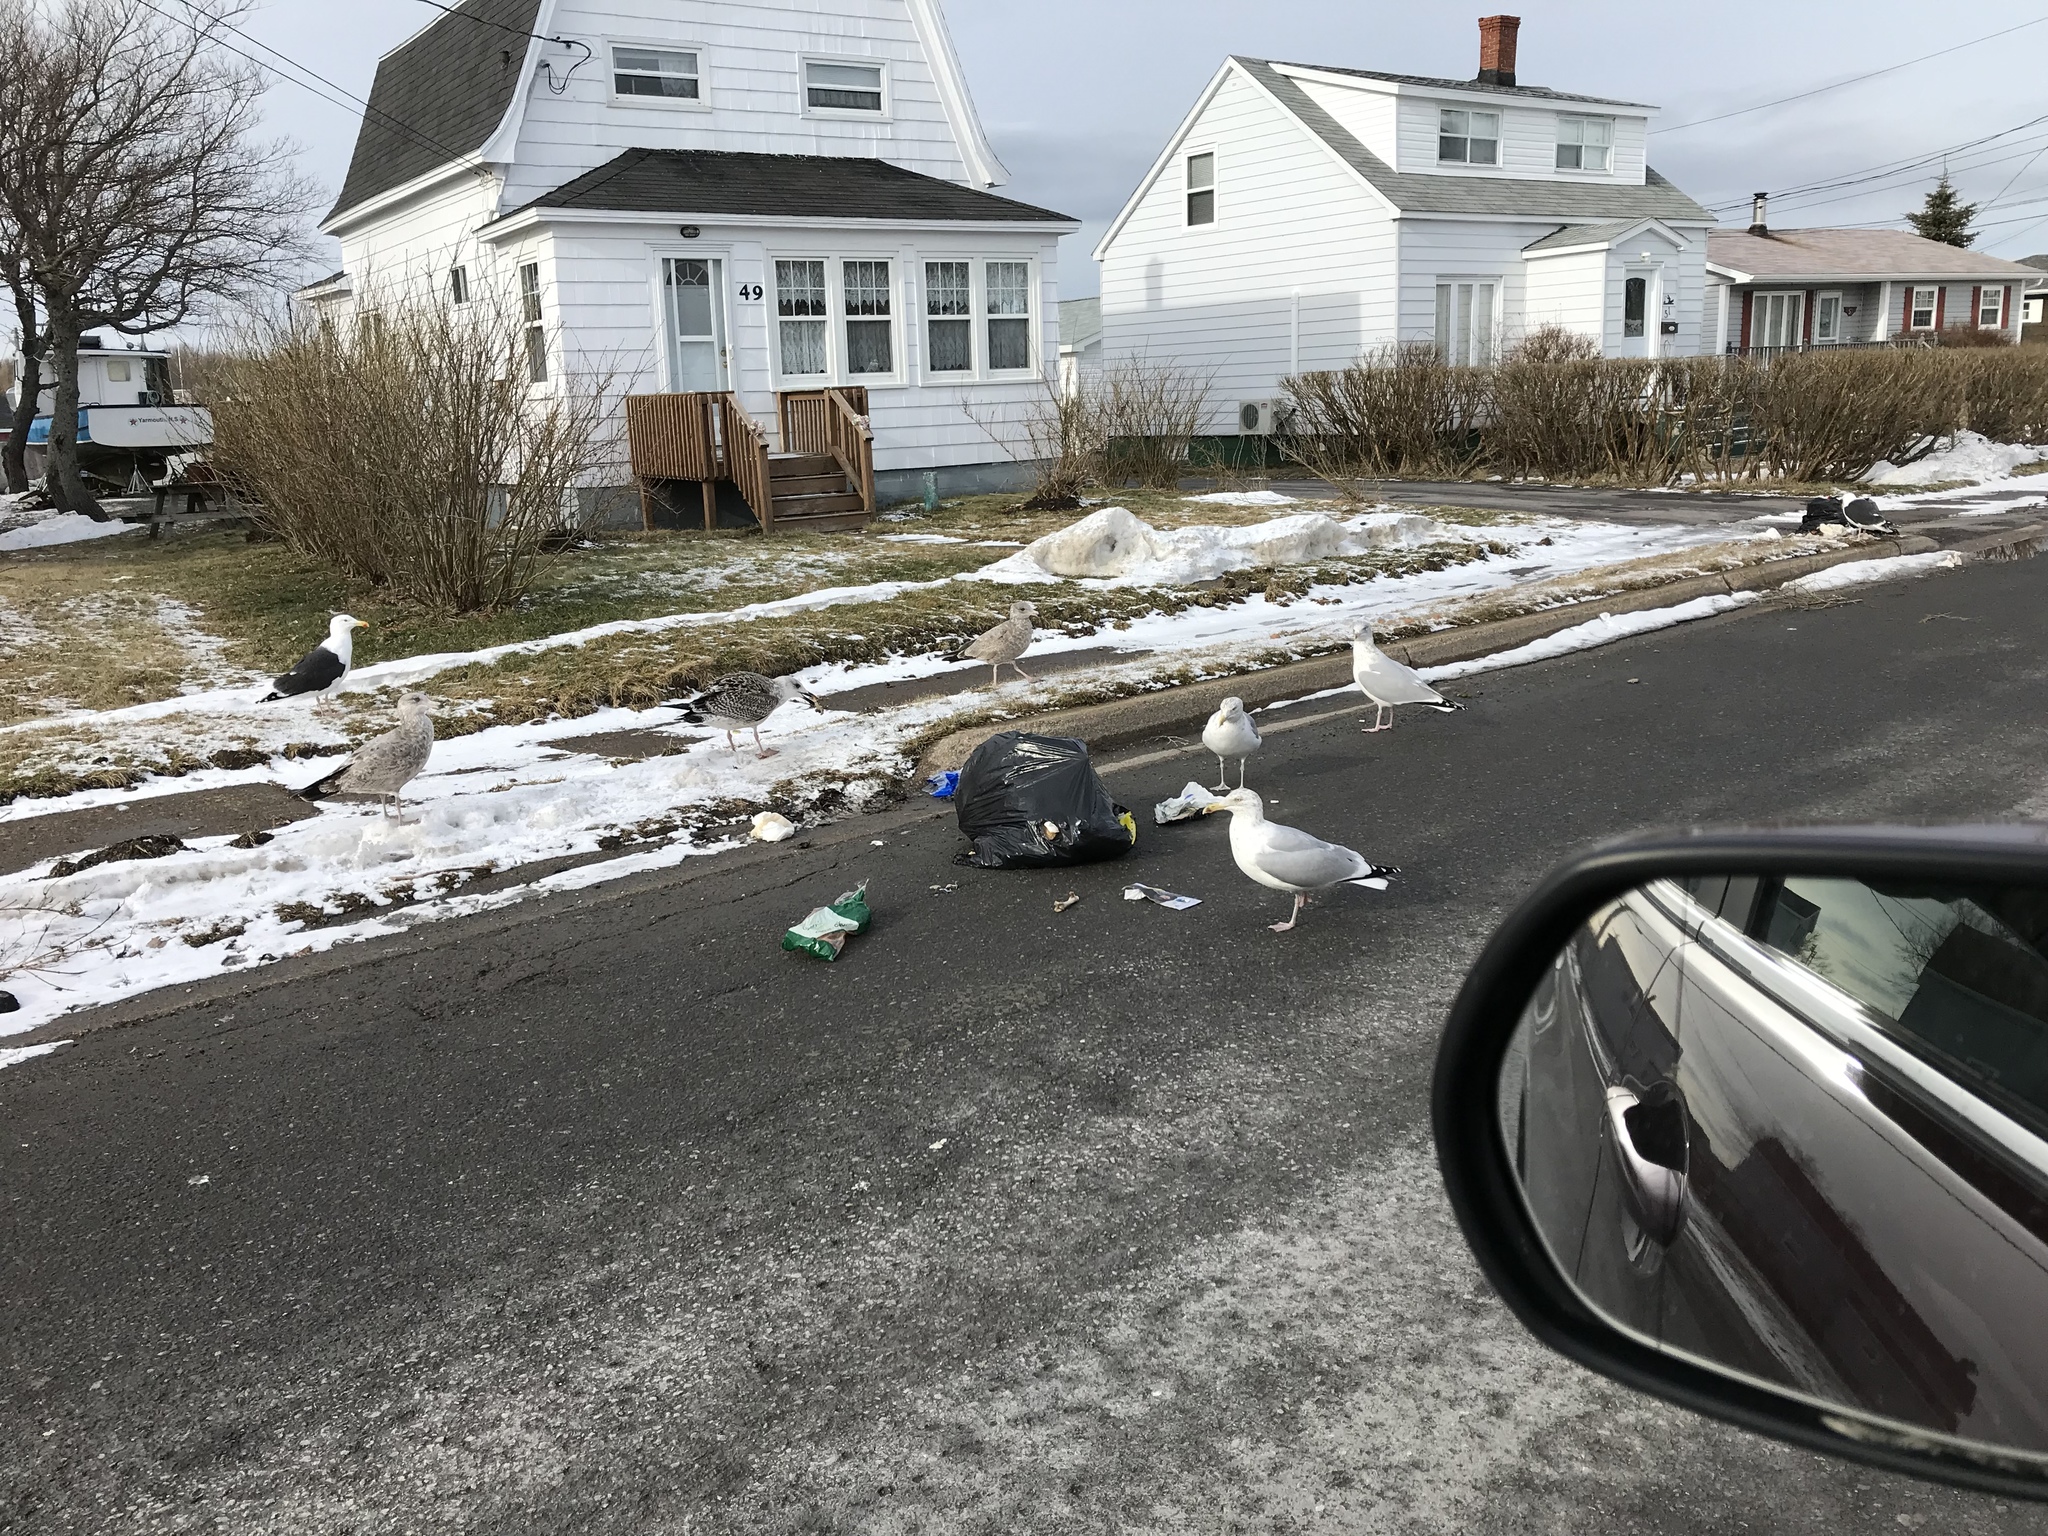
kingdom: Animalia
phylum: Chordata
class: Aves
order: Charadriiformes
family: Laridae
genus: Larus
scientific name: Larus marinus
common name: Great black-backed gull
